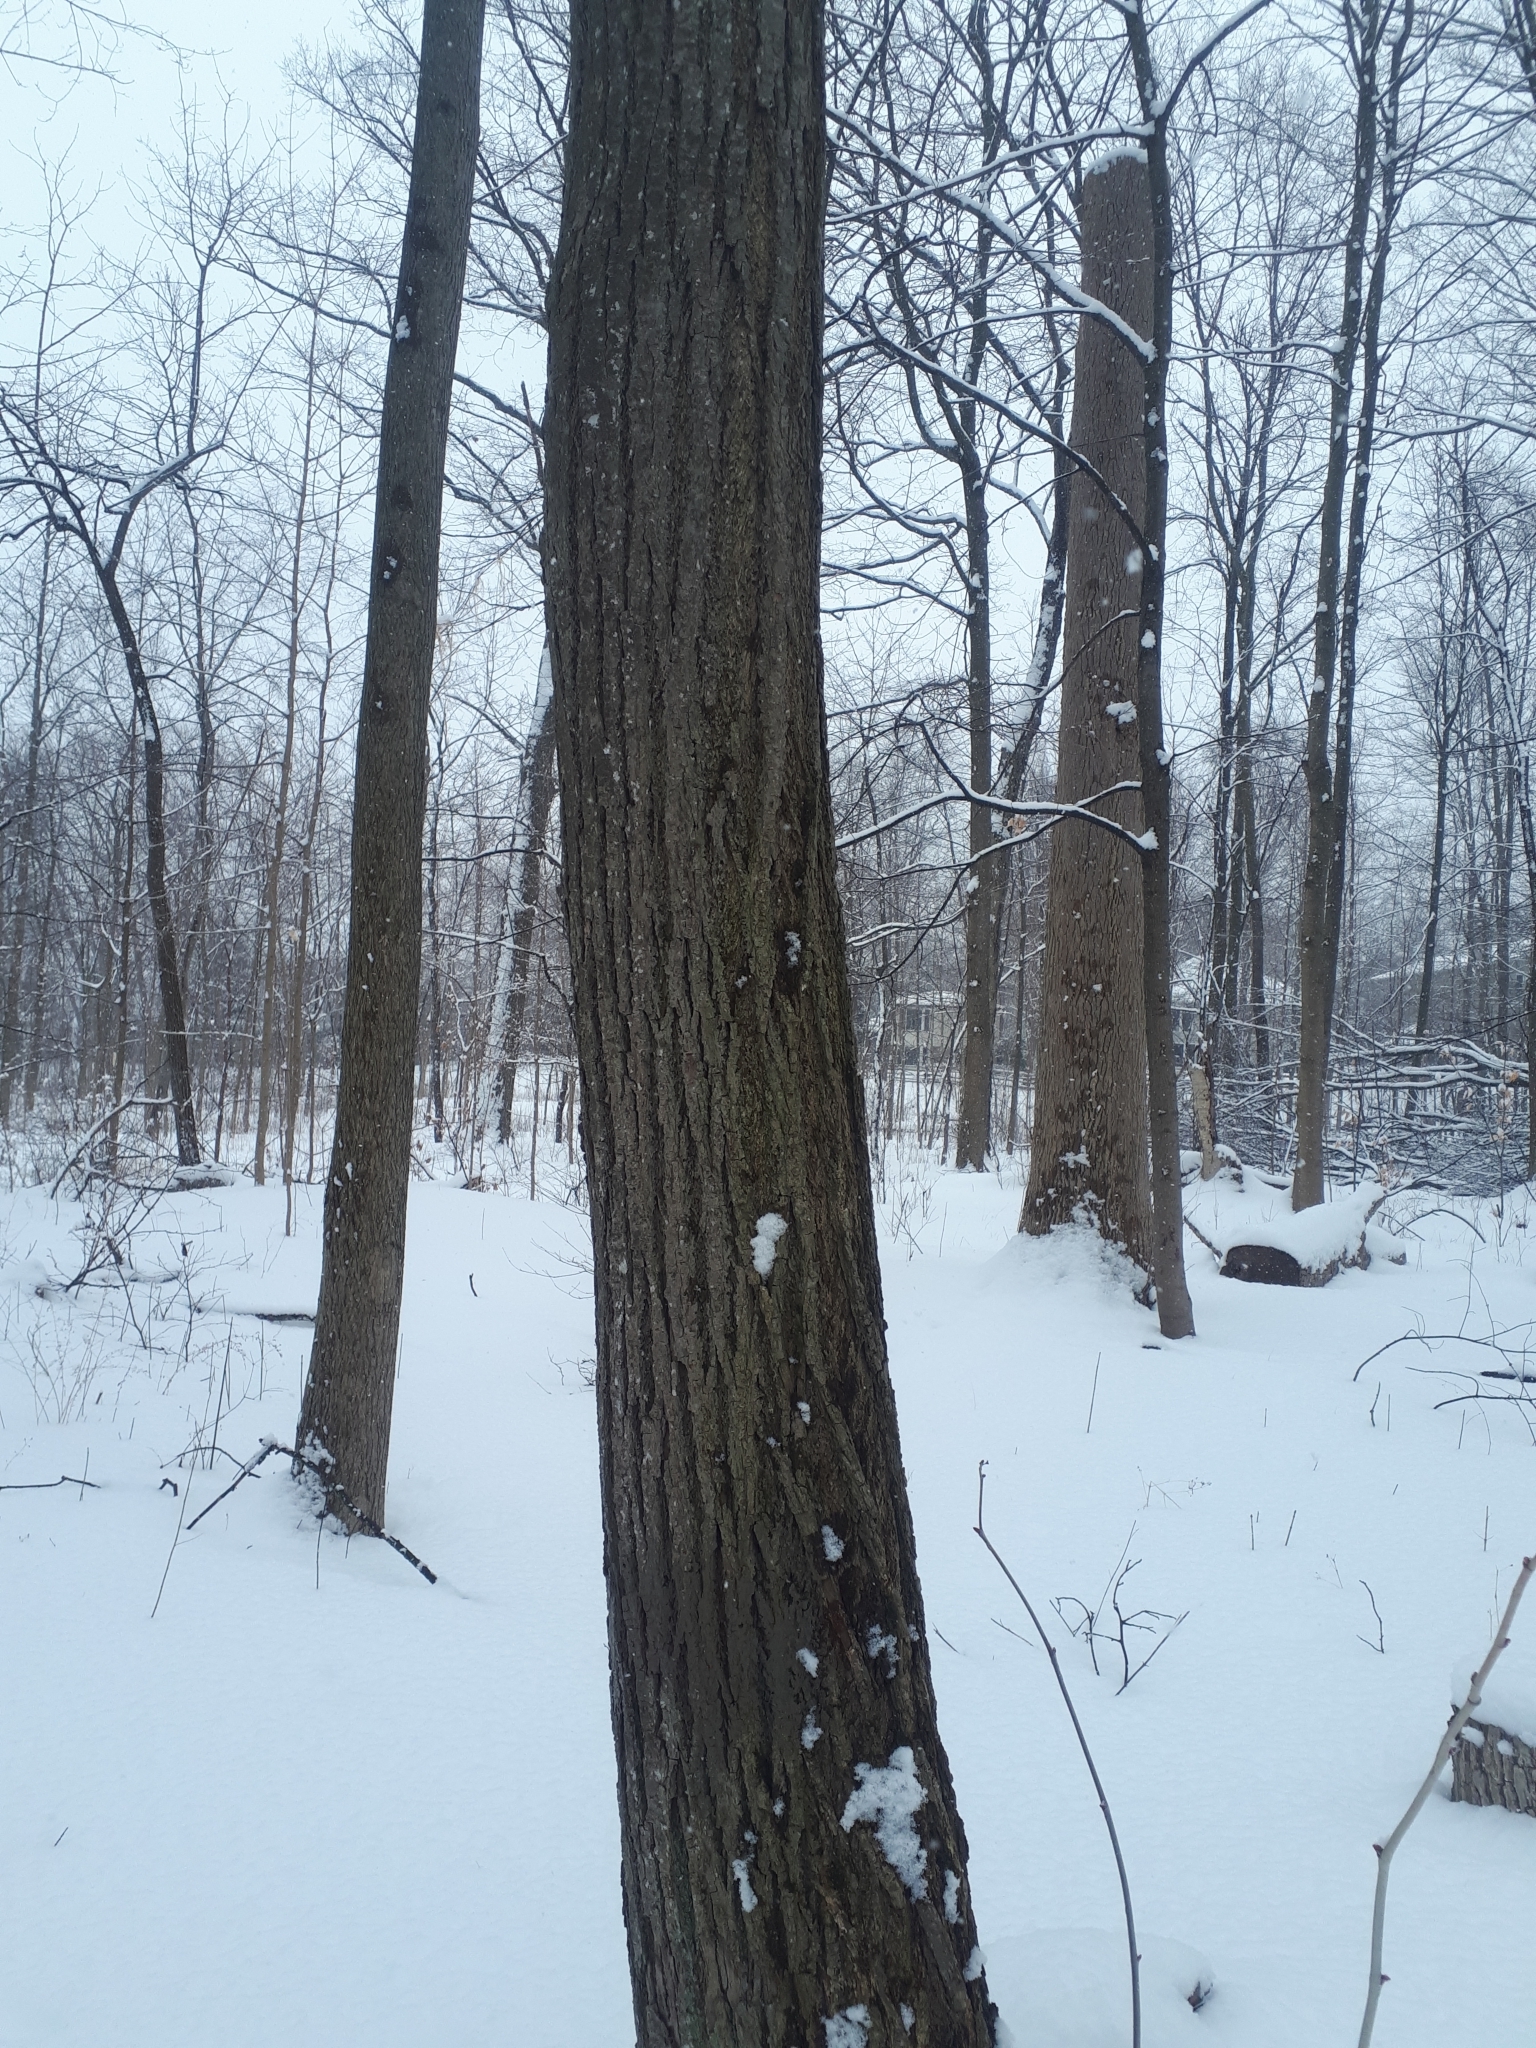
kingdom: Plantae
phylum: Tracheophyta
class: Magnoliopsida
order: Malvales
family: Malvaceae
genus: Tilia
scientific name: Tilia americana
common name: Basswood
